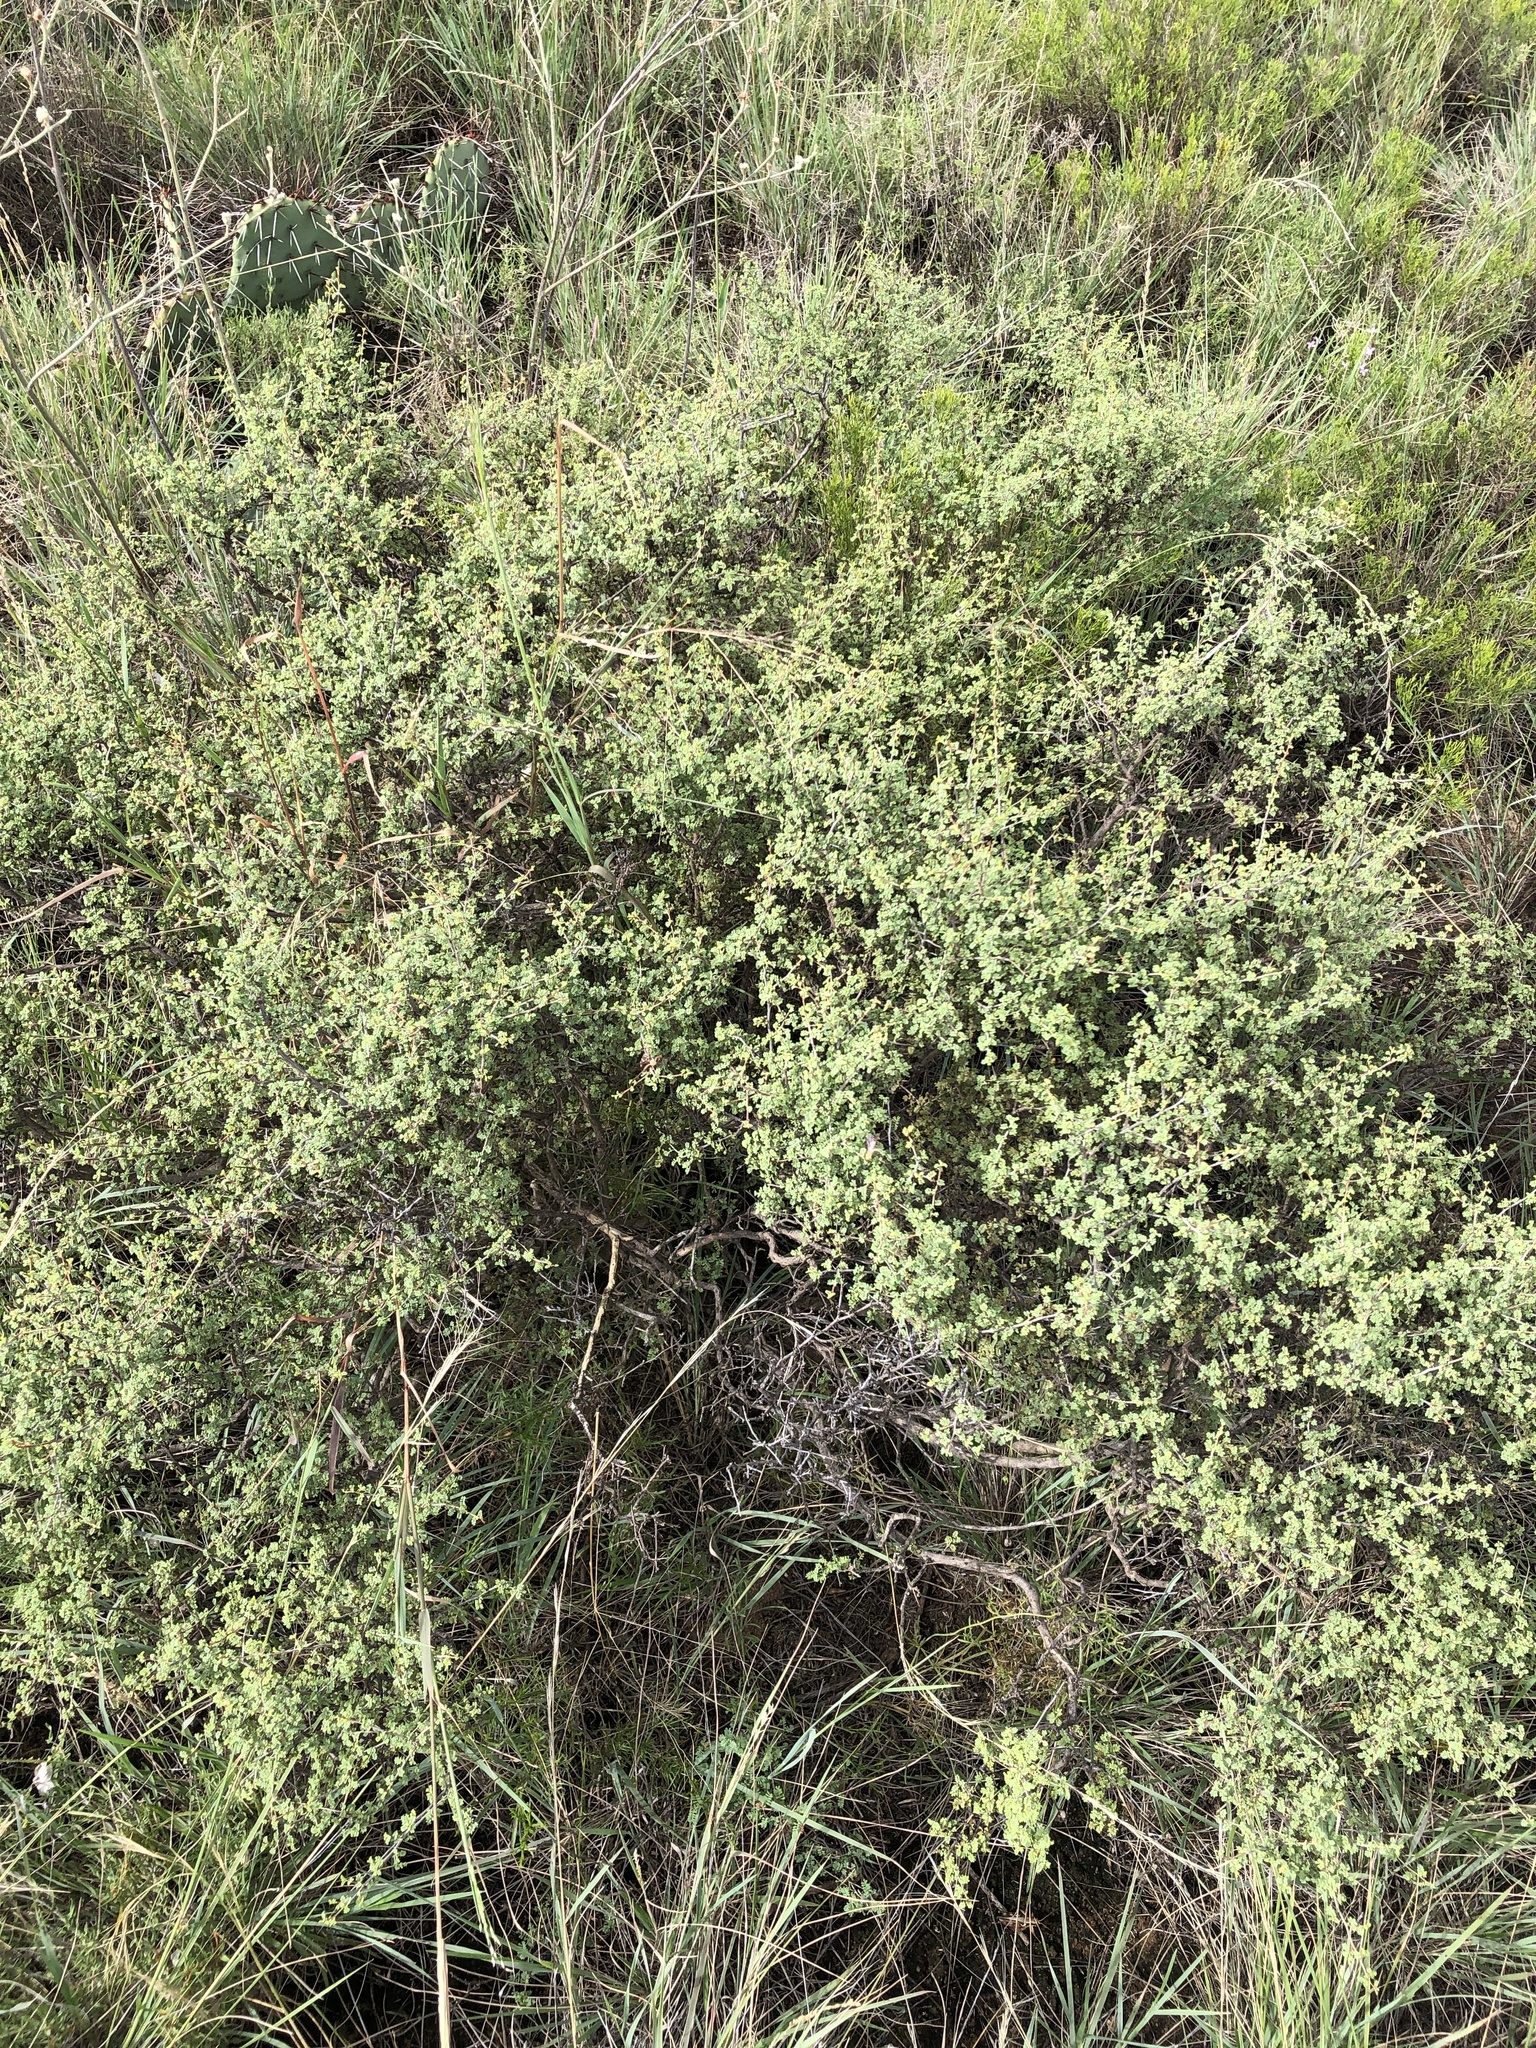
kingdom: Plantae
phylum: Tracheophyta
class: Magnoliopsida
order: Fabales
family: Fabaceae
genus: Dalea
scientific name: Dalea formosa
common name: Feather-plume dalea
